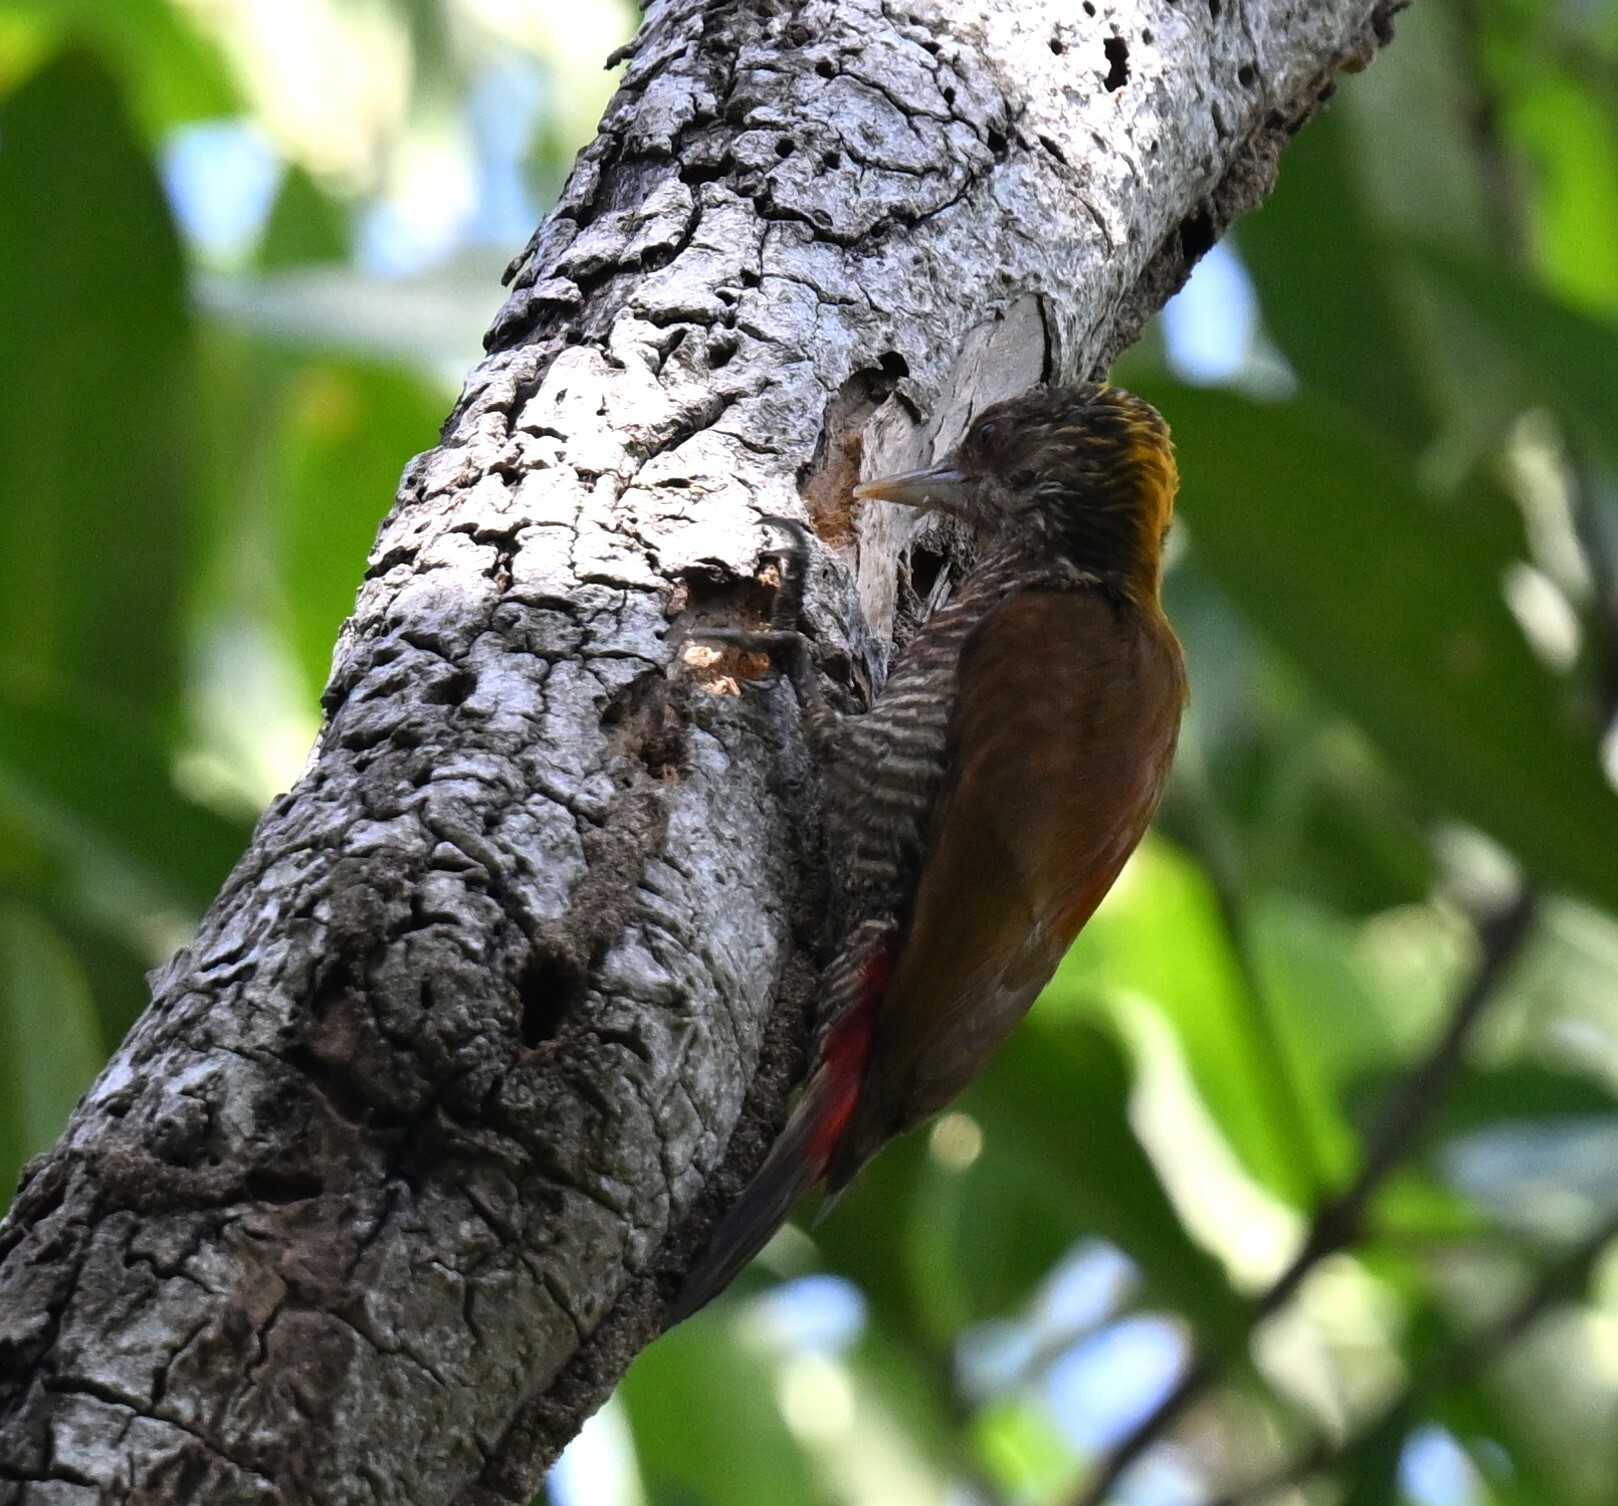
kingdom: Animalia
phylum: Chordata
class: Aves
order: Piciformes
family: Picidae
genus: Veniliornis
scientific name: Veniliornis kirkii
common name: Red-rumped woodpecker
